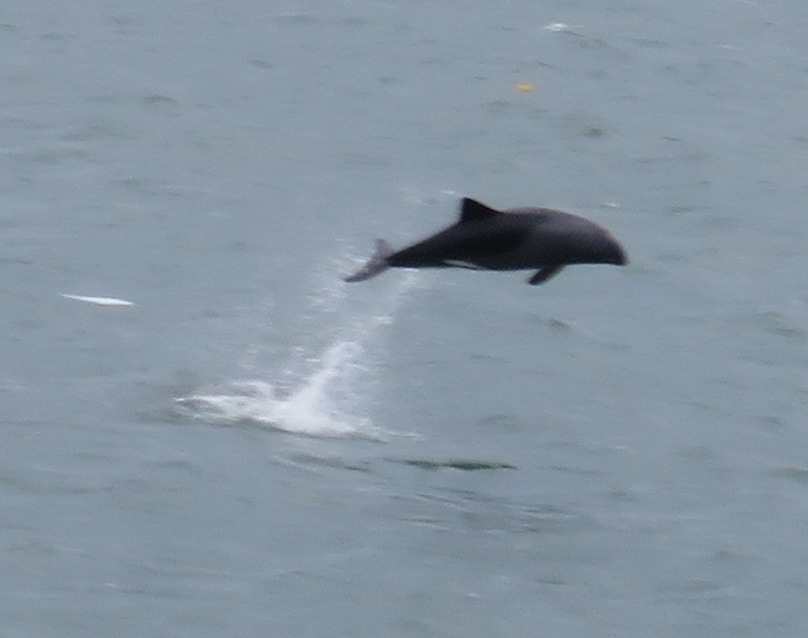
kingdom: Animalia
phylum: Chordata
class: Mammalia
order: Cetacea
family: Delphinidae
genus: Cephalorhynchus
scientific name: Cephalorhynchus heavisidii
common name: Haviside's dolphin
